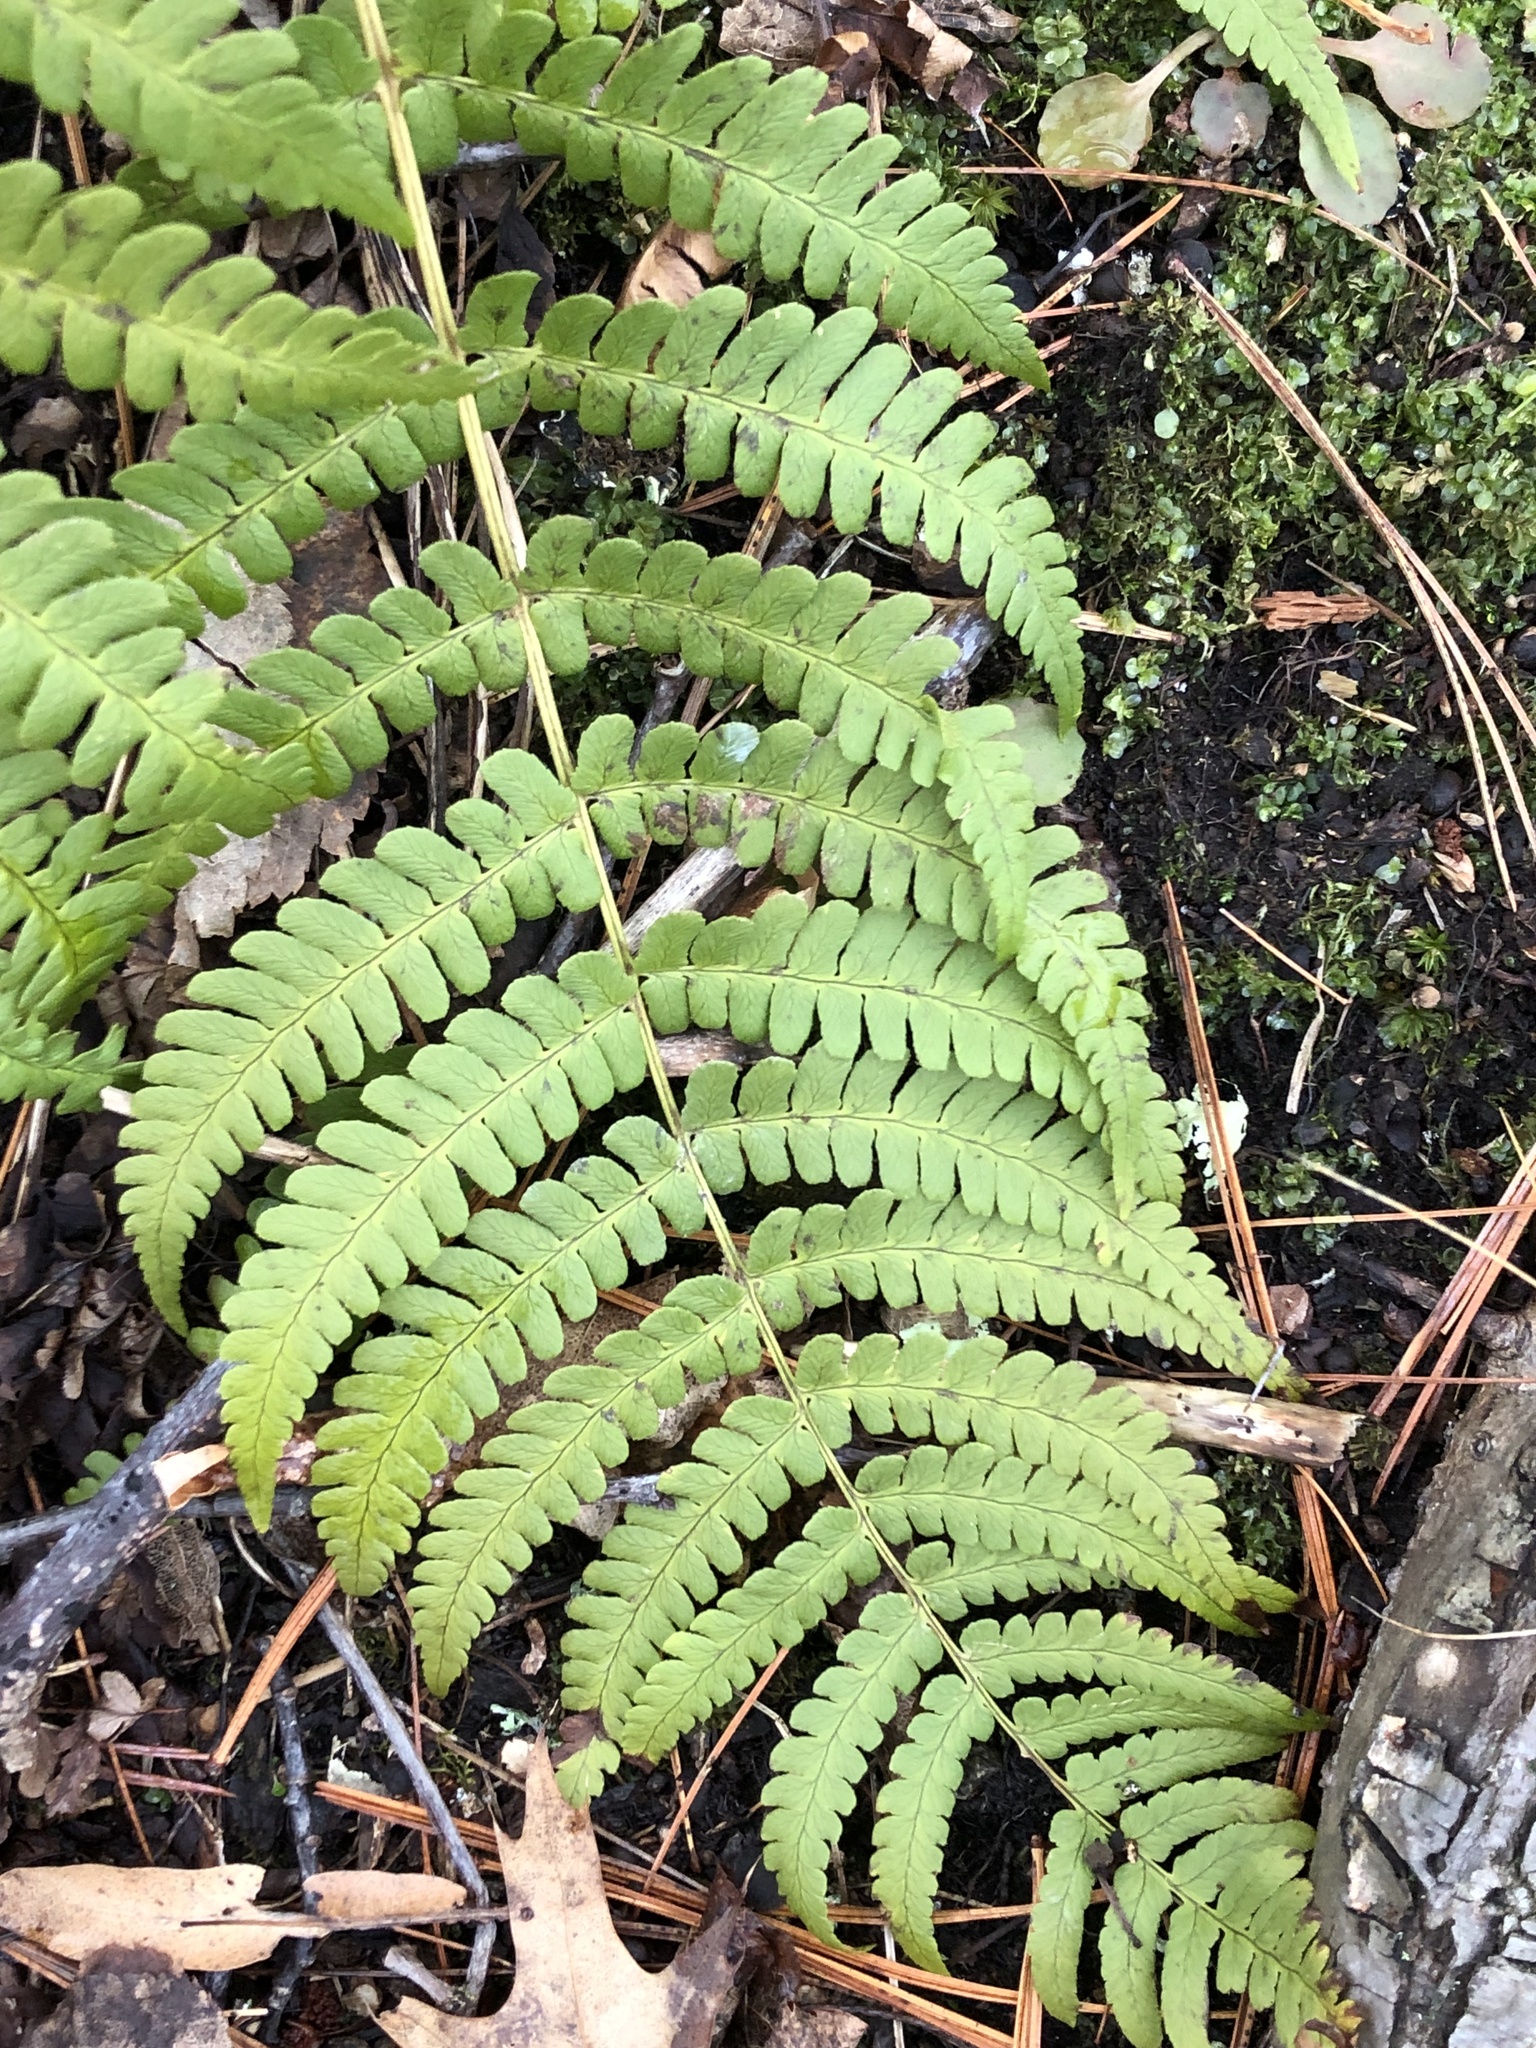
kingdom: Plantae
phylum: Tracheophyta
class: Polypodiopsida
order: Polypodiales
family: Dryopteridaceae
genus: Dryopteris
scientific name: Dryopteris marginalis
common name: Marginal wood fern
